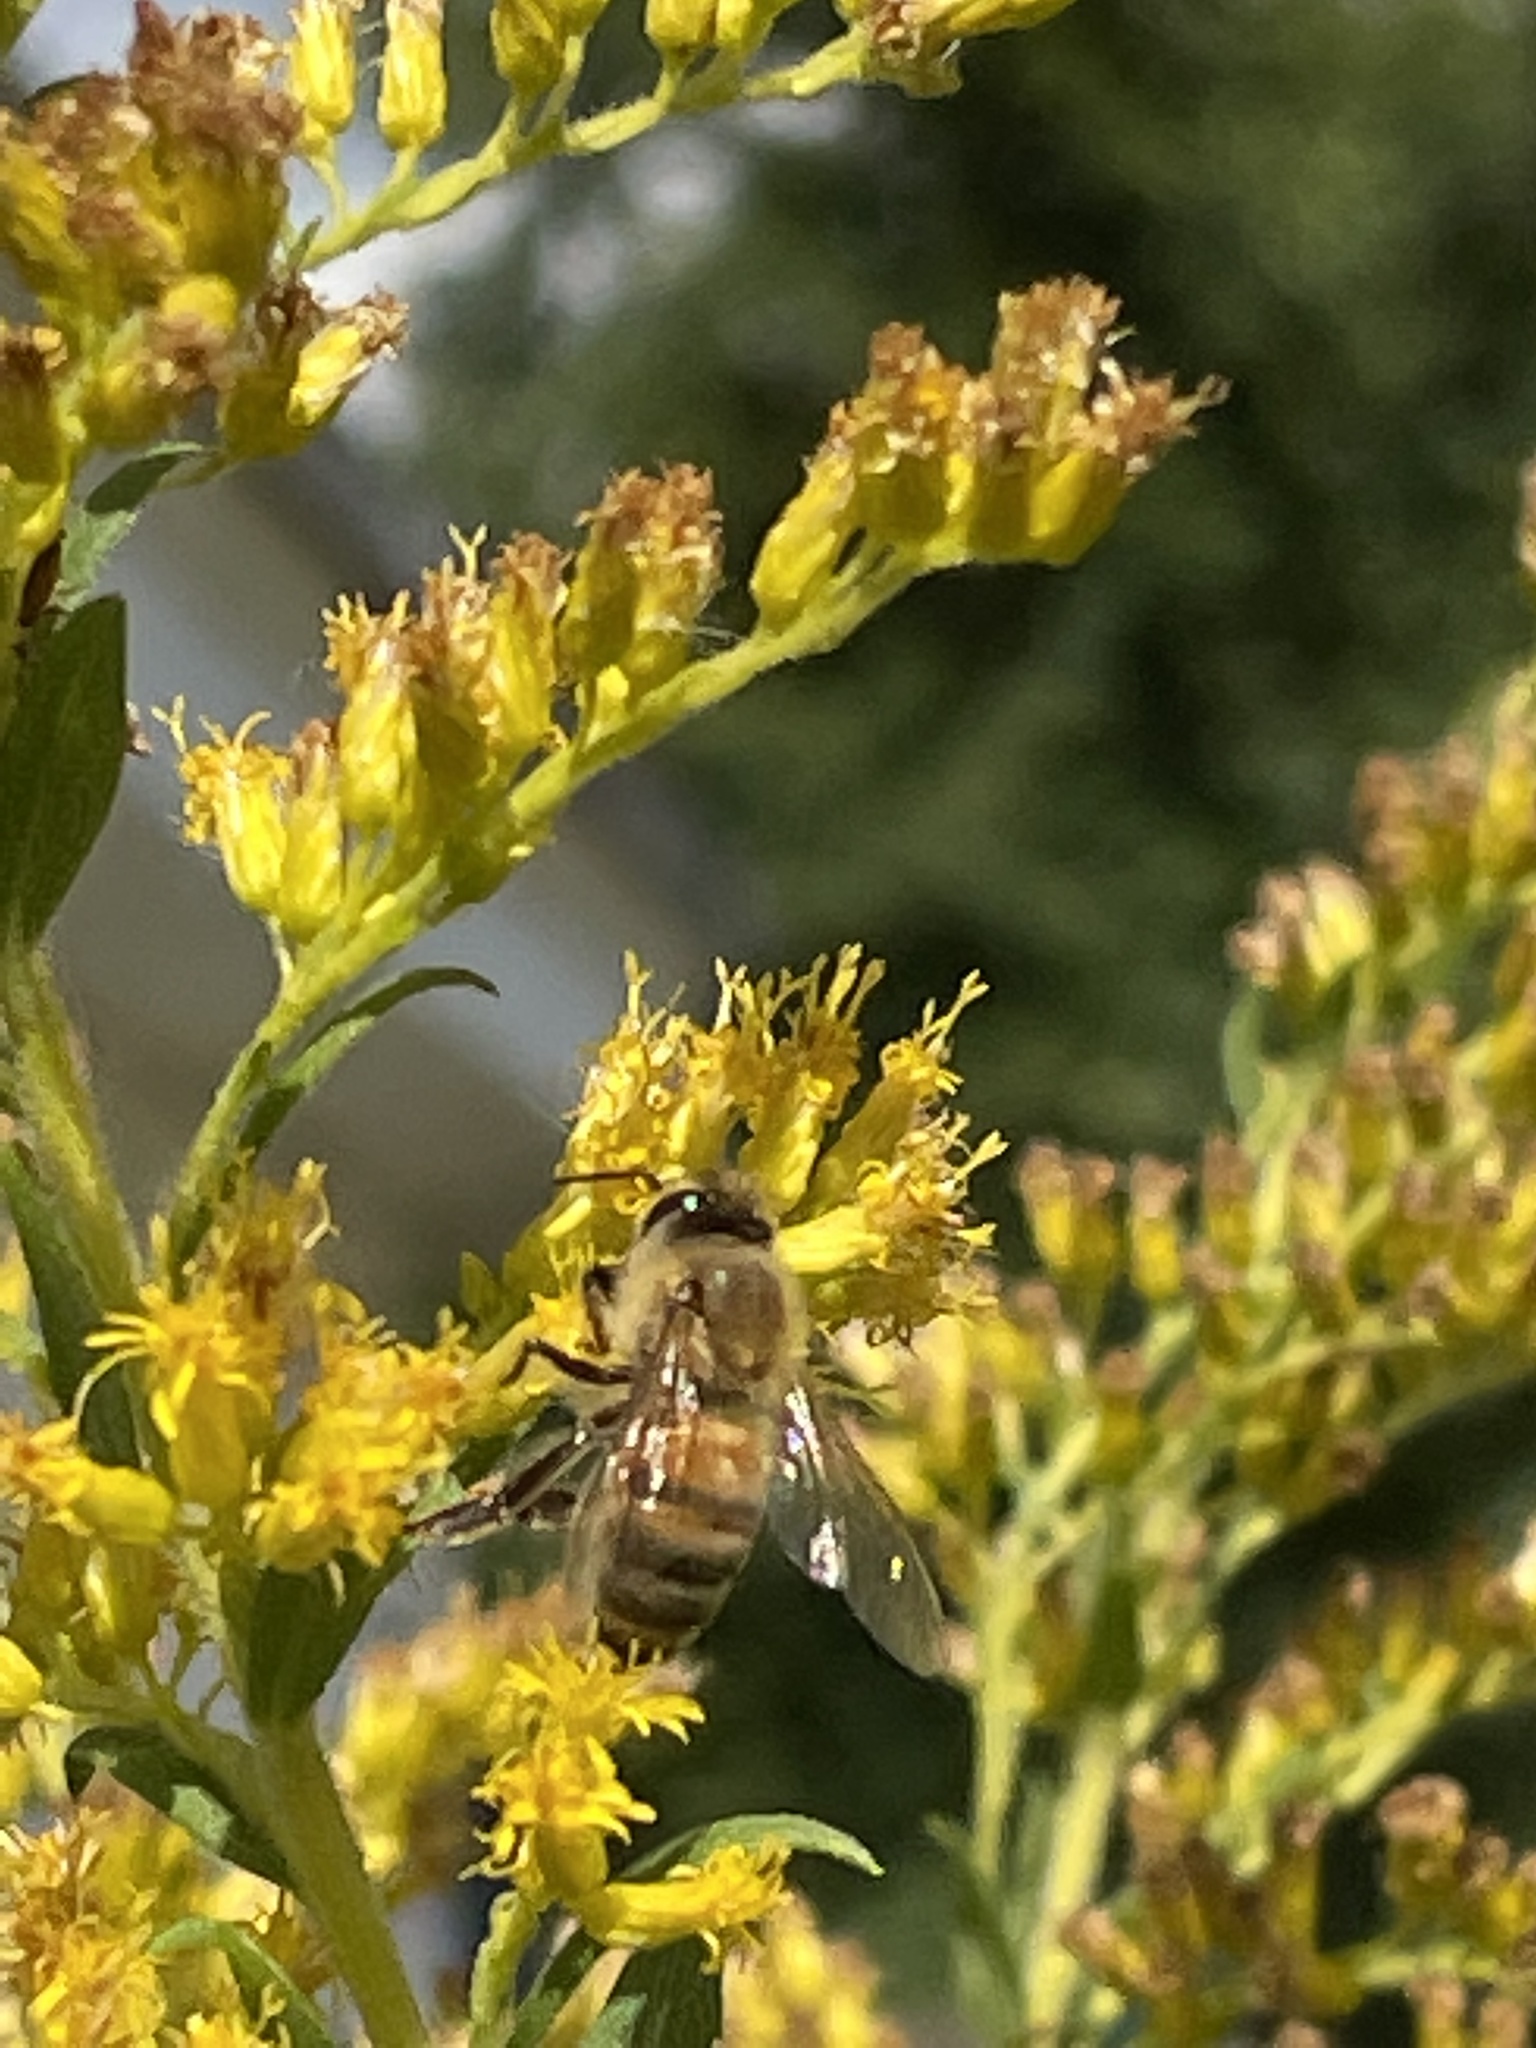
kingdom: Animalia
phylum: Arthropoda
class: Insecta
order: Hymenoptera
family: Apidae
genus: Apis
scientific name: Apis mellifera
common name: Honey bee
